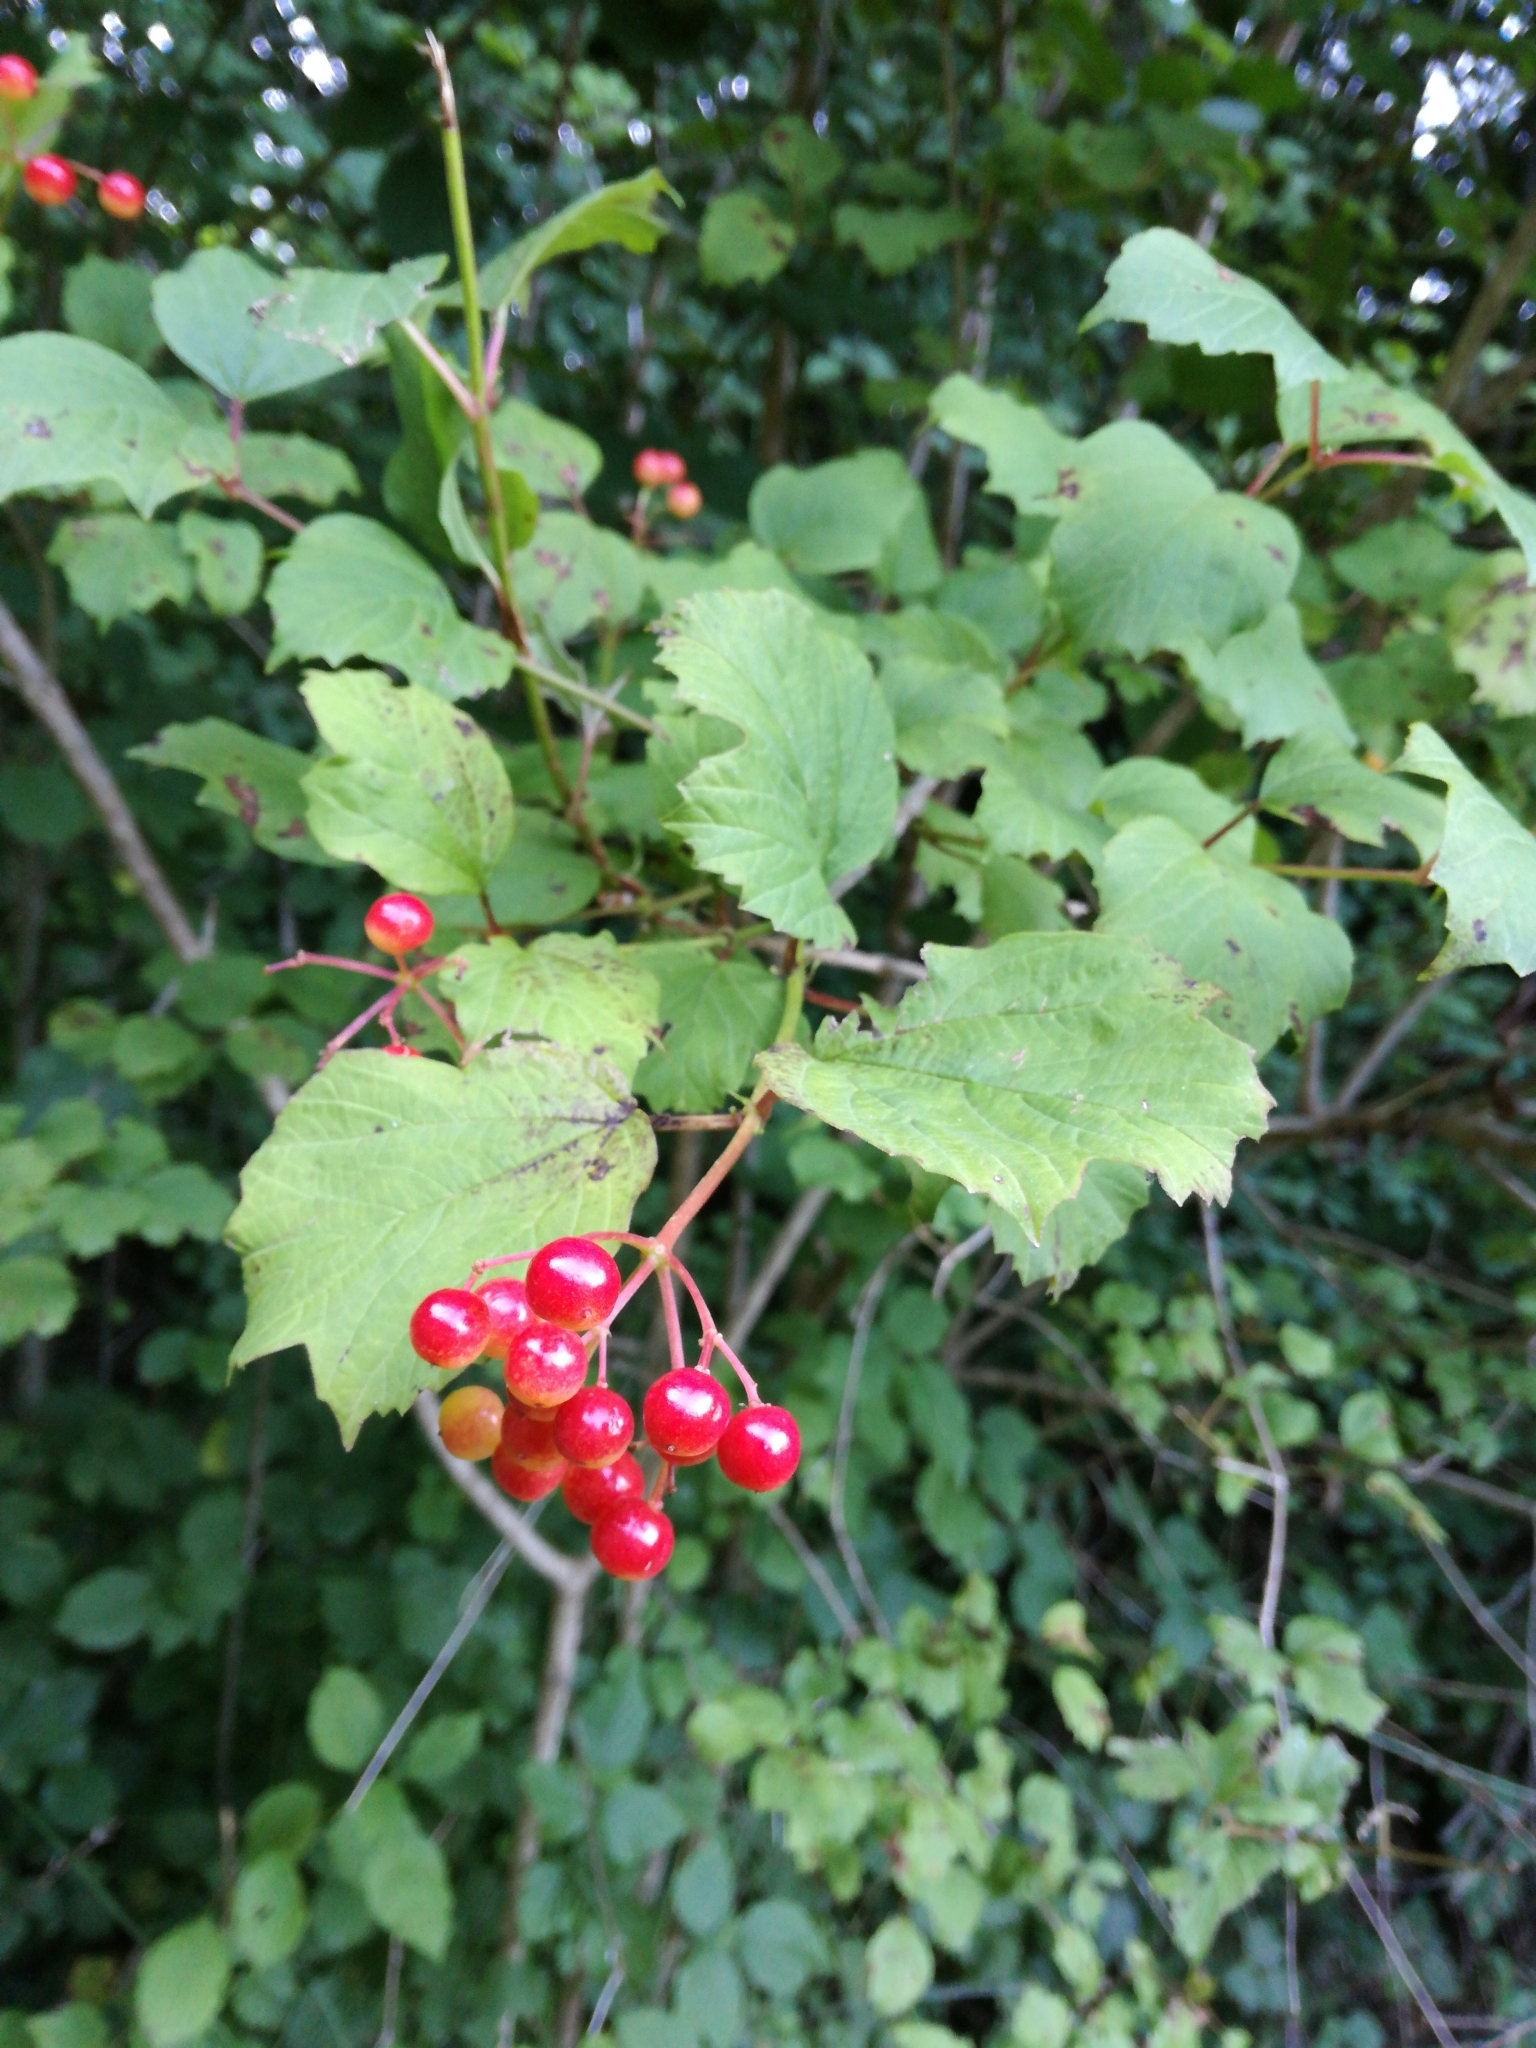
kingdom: Plantae
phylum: Tracheophyta
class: Magnoliopsida
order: Dipsacales
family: Viburnaceae
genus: Viburnum
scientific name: Viburnum opulus
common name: Guelder-rose
